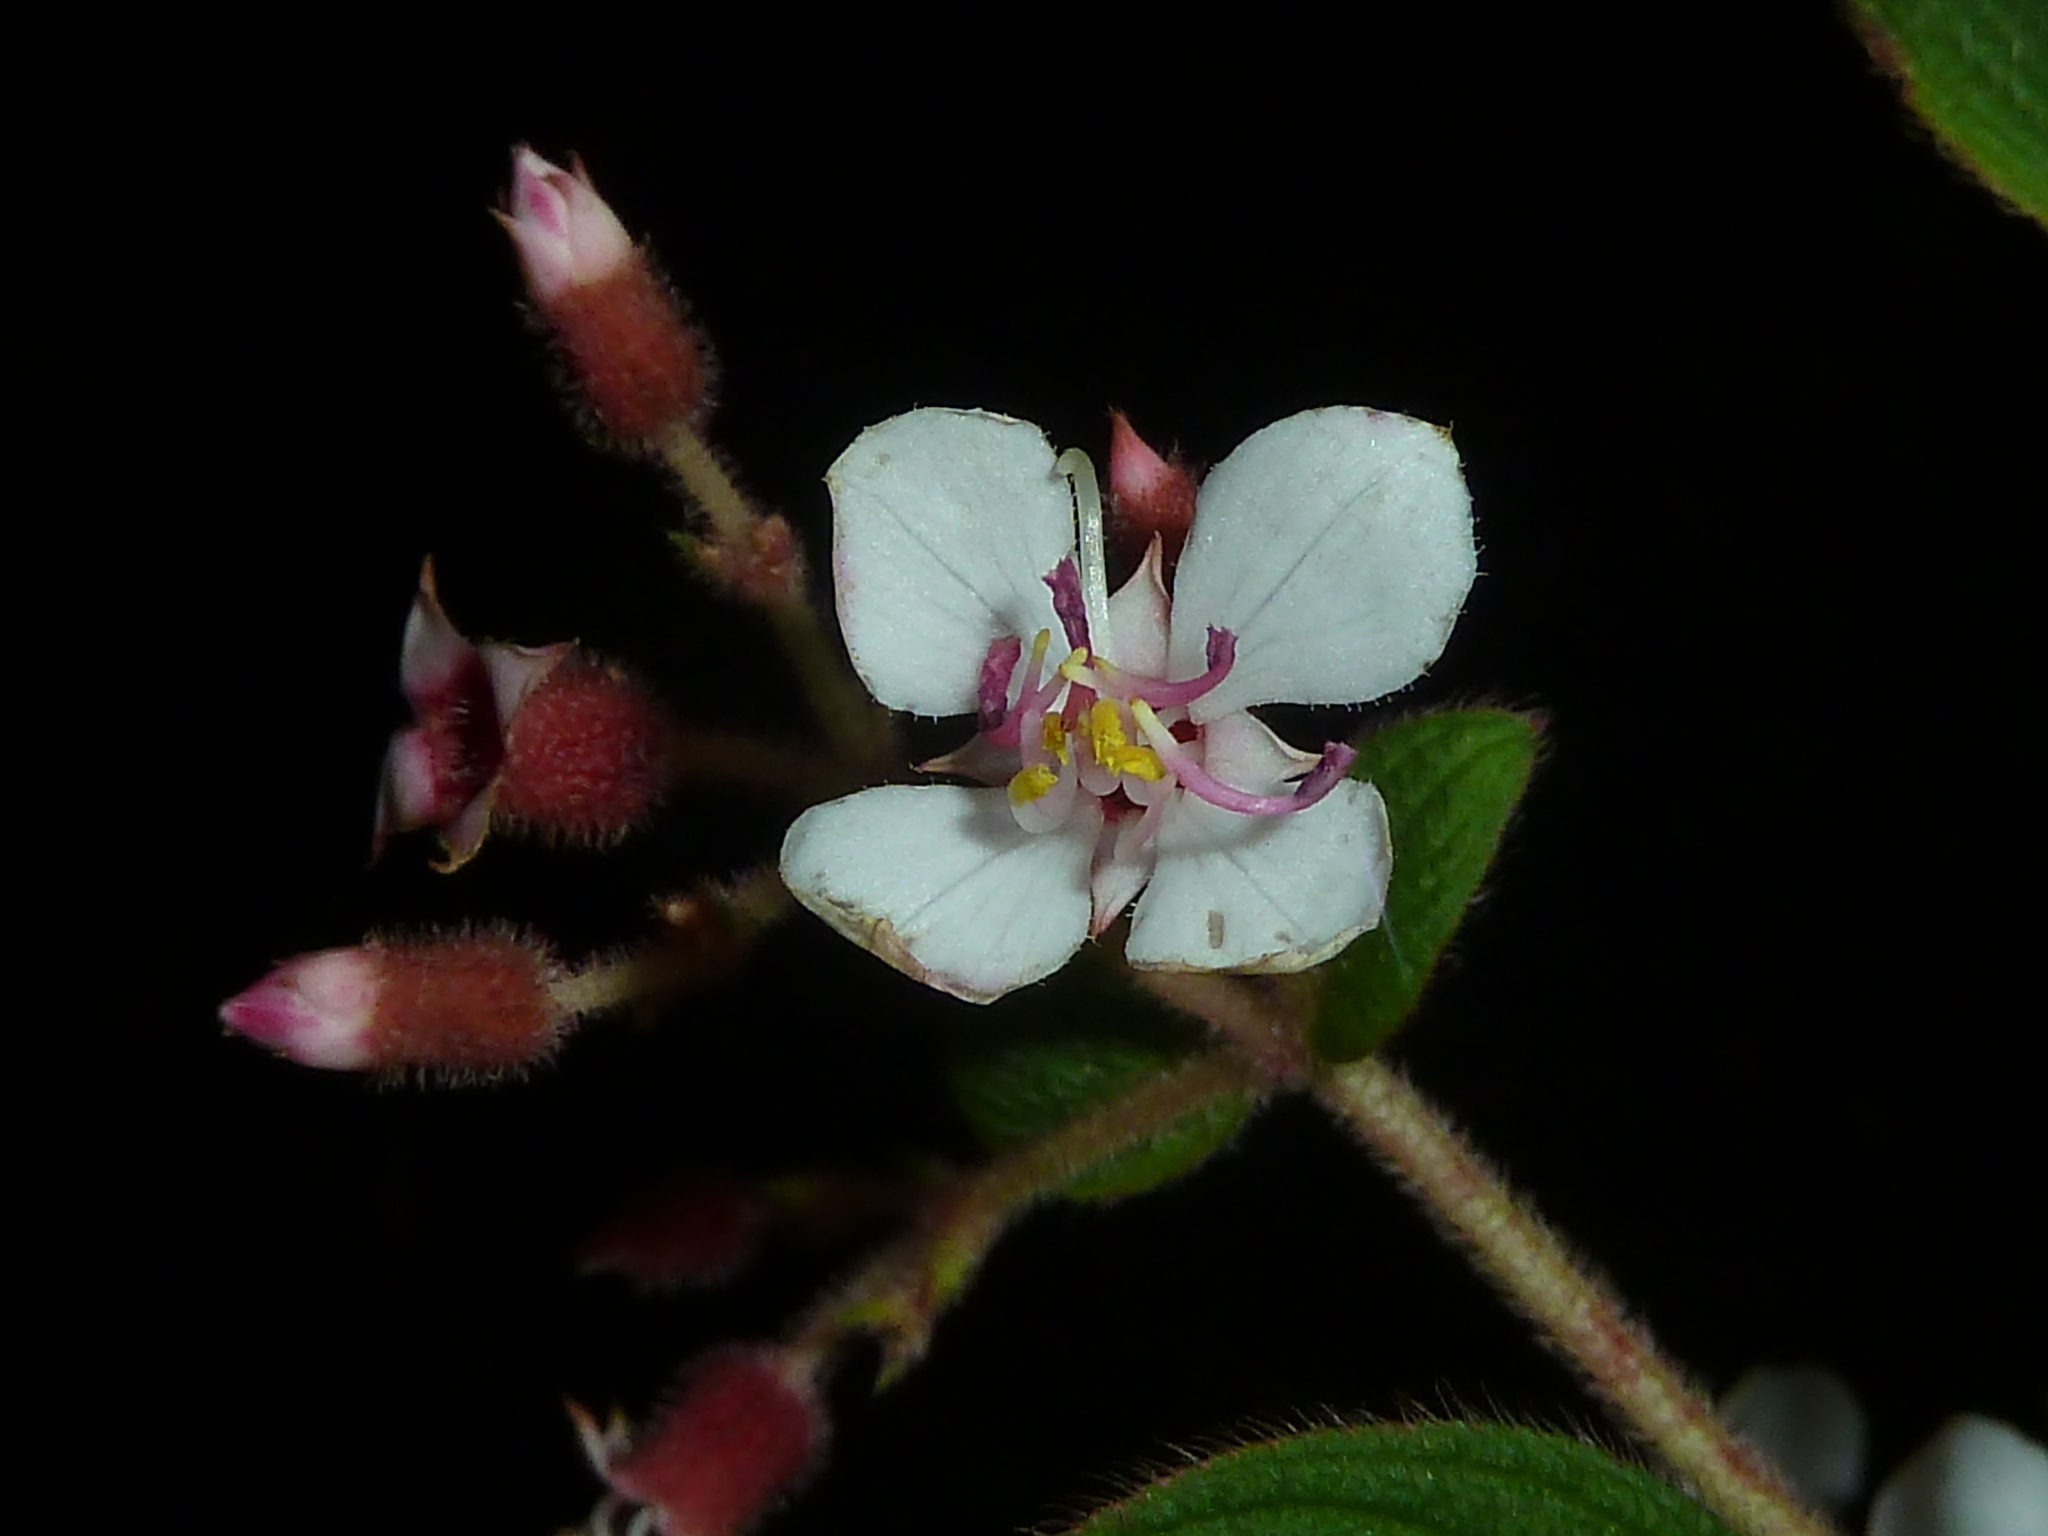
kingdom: Plantae
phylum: Tracheophyta
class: Magnoliopsida
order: Myrtales
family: Melastomataceae
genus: Heterocentron
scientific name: Heterocentron glandulosum
